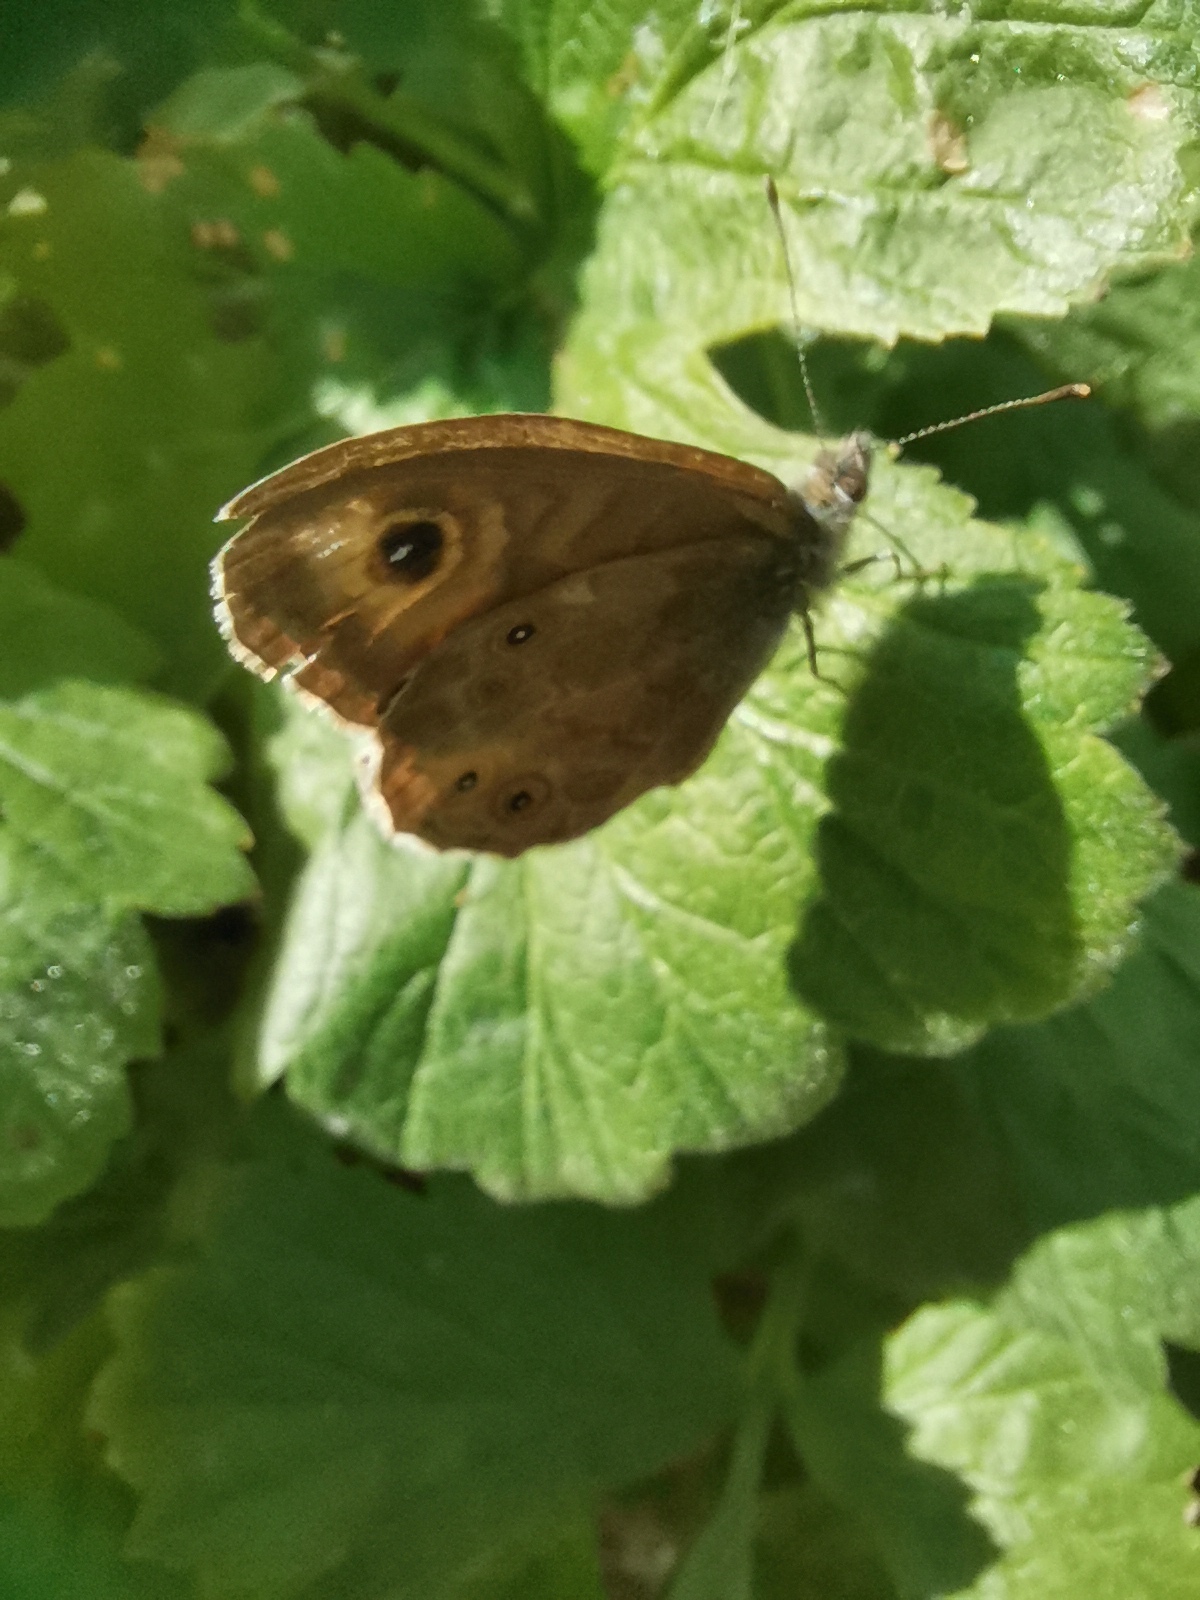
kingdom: Animalia
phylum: Arthropoda
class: Insecta
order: Lepidoptera
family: Nymphalidae
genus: Pararge
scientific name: Pararge Lasiommata maera
